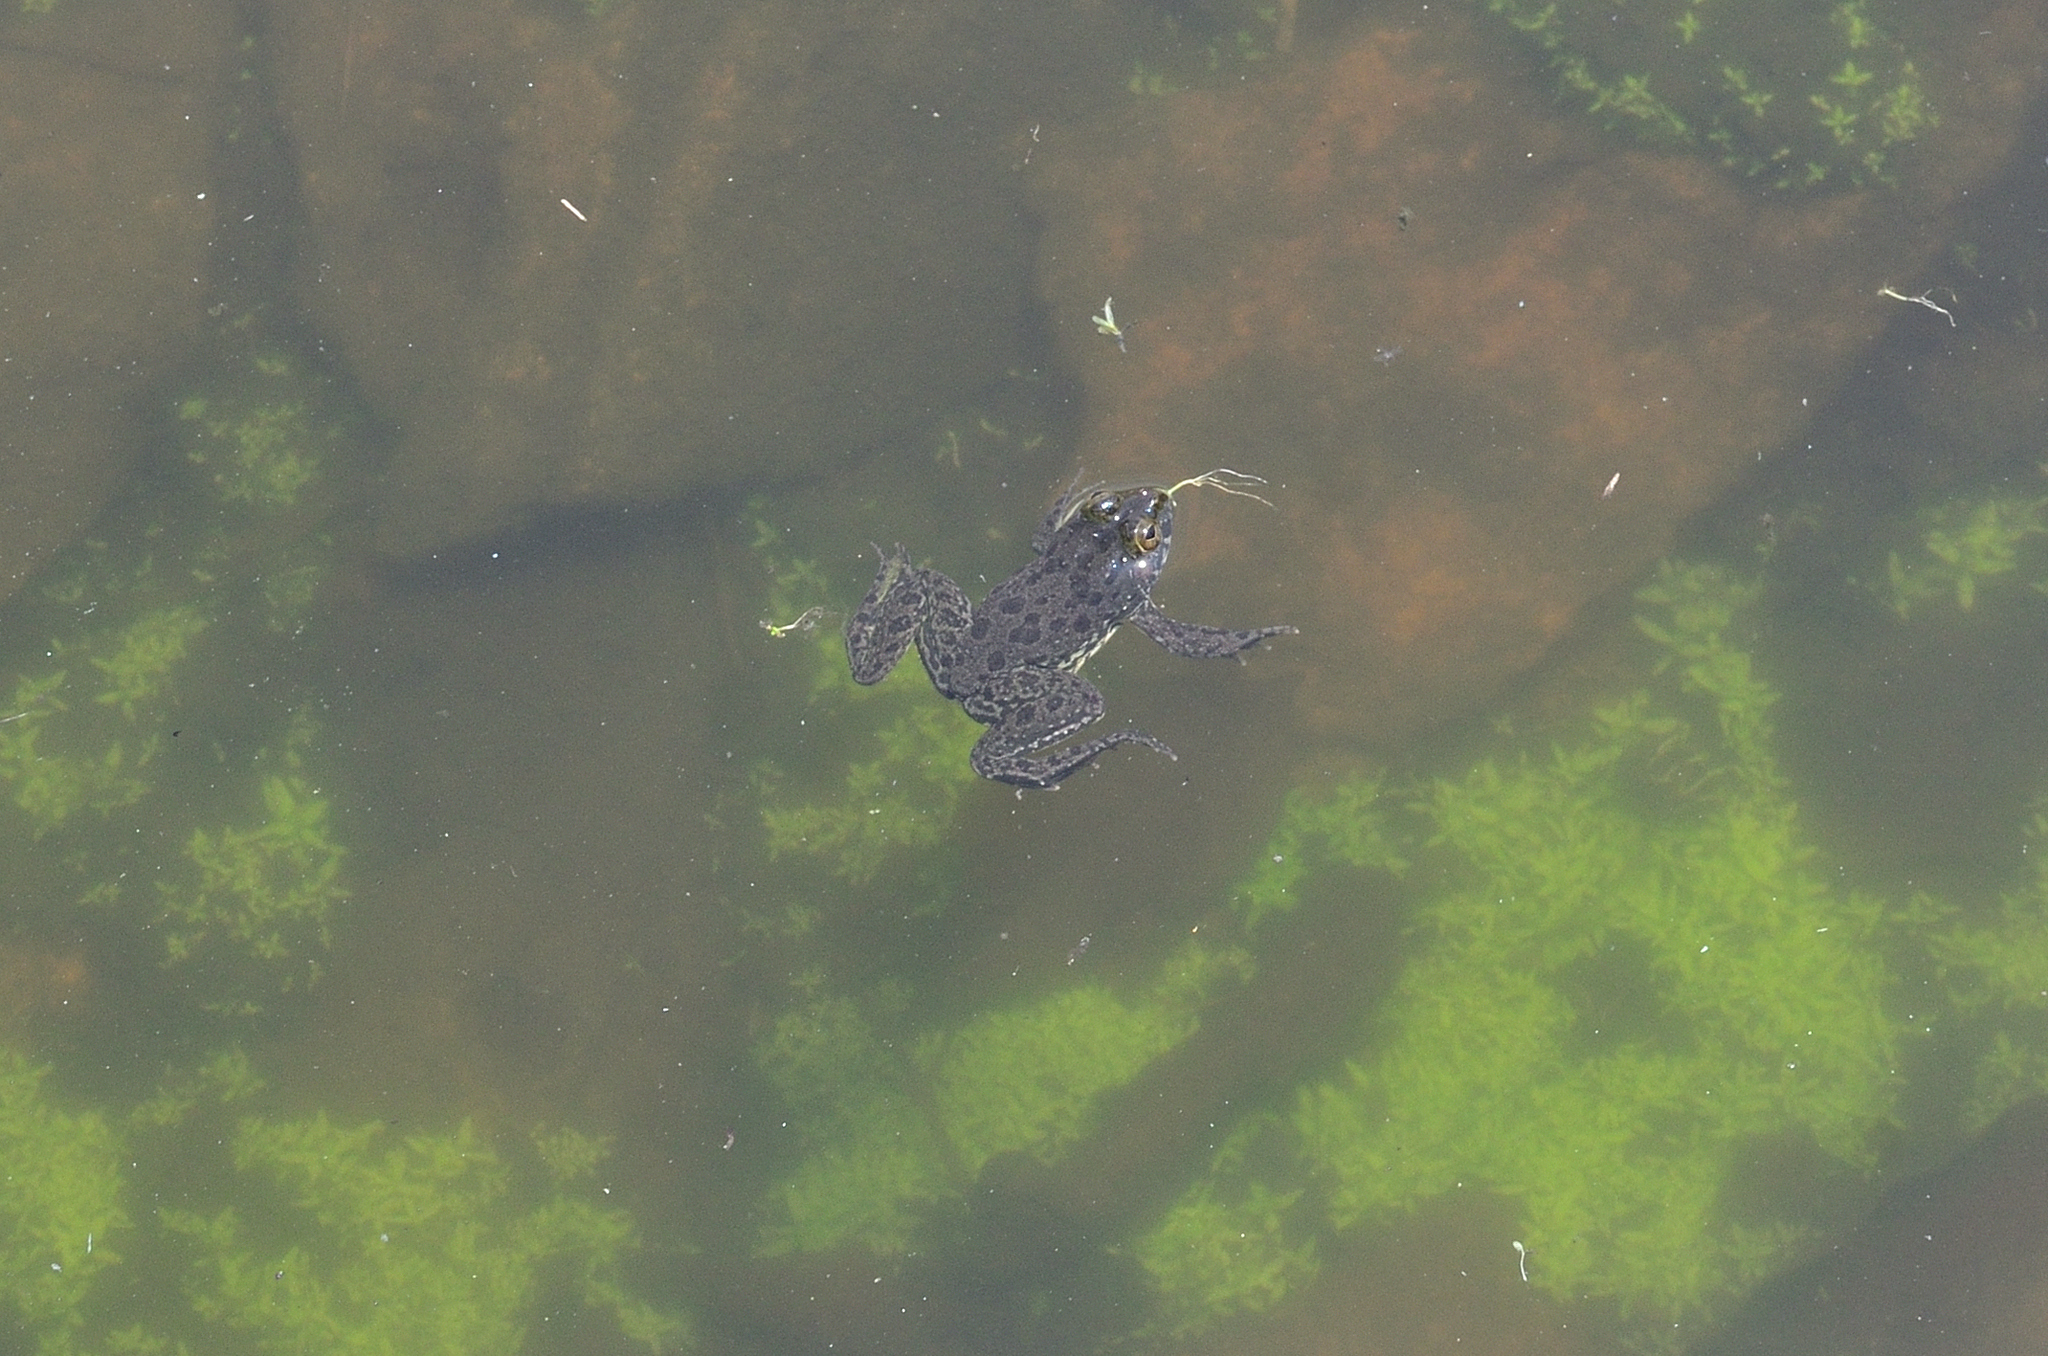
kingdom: Animalia
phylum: Chordata
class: Amphibia
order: Anura
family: Dicroglossidae
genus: Euphlyctis
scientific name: Euphlyctis cyanophlyctis
